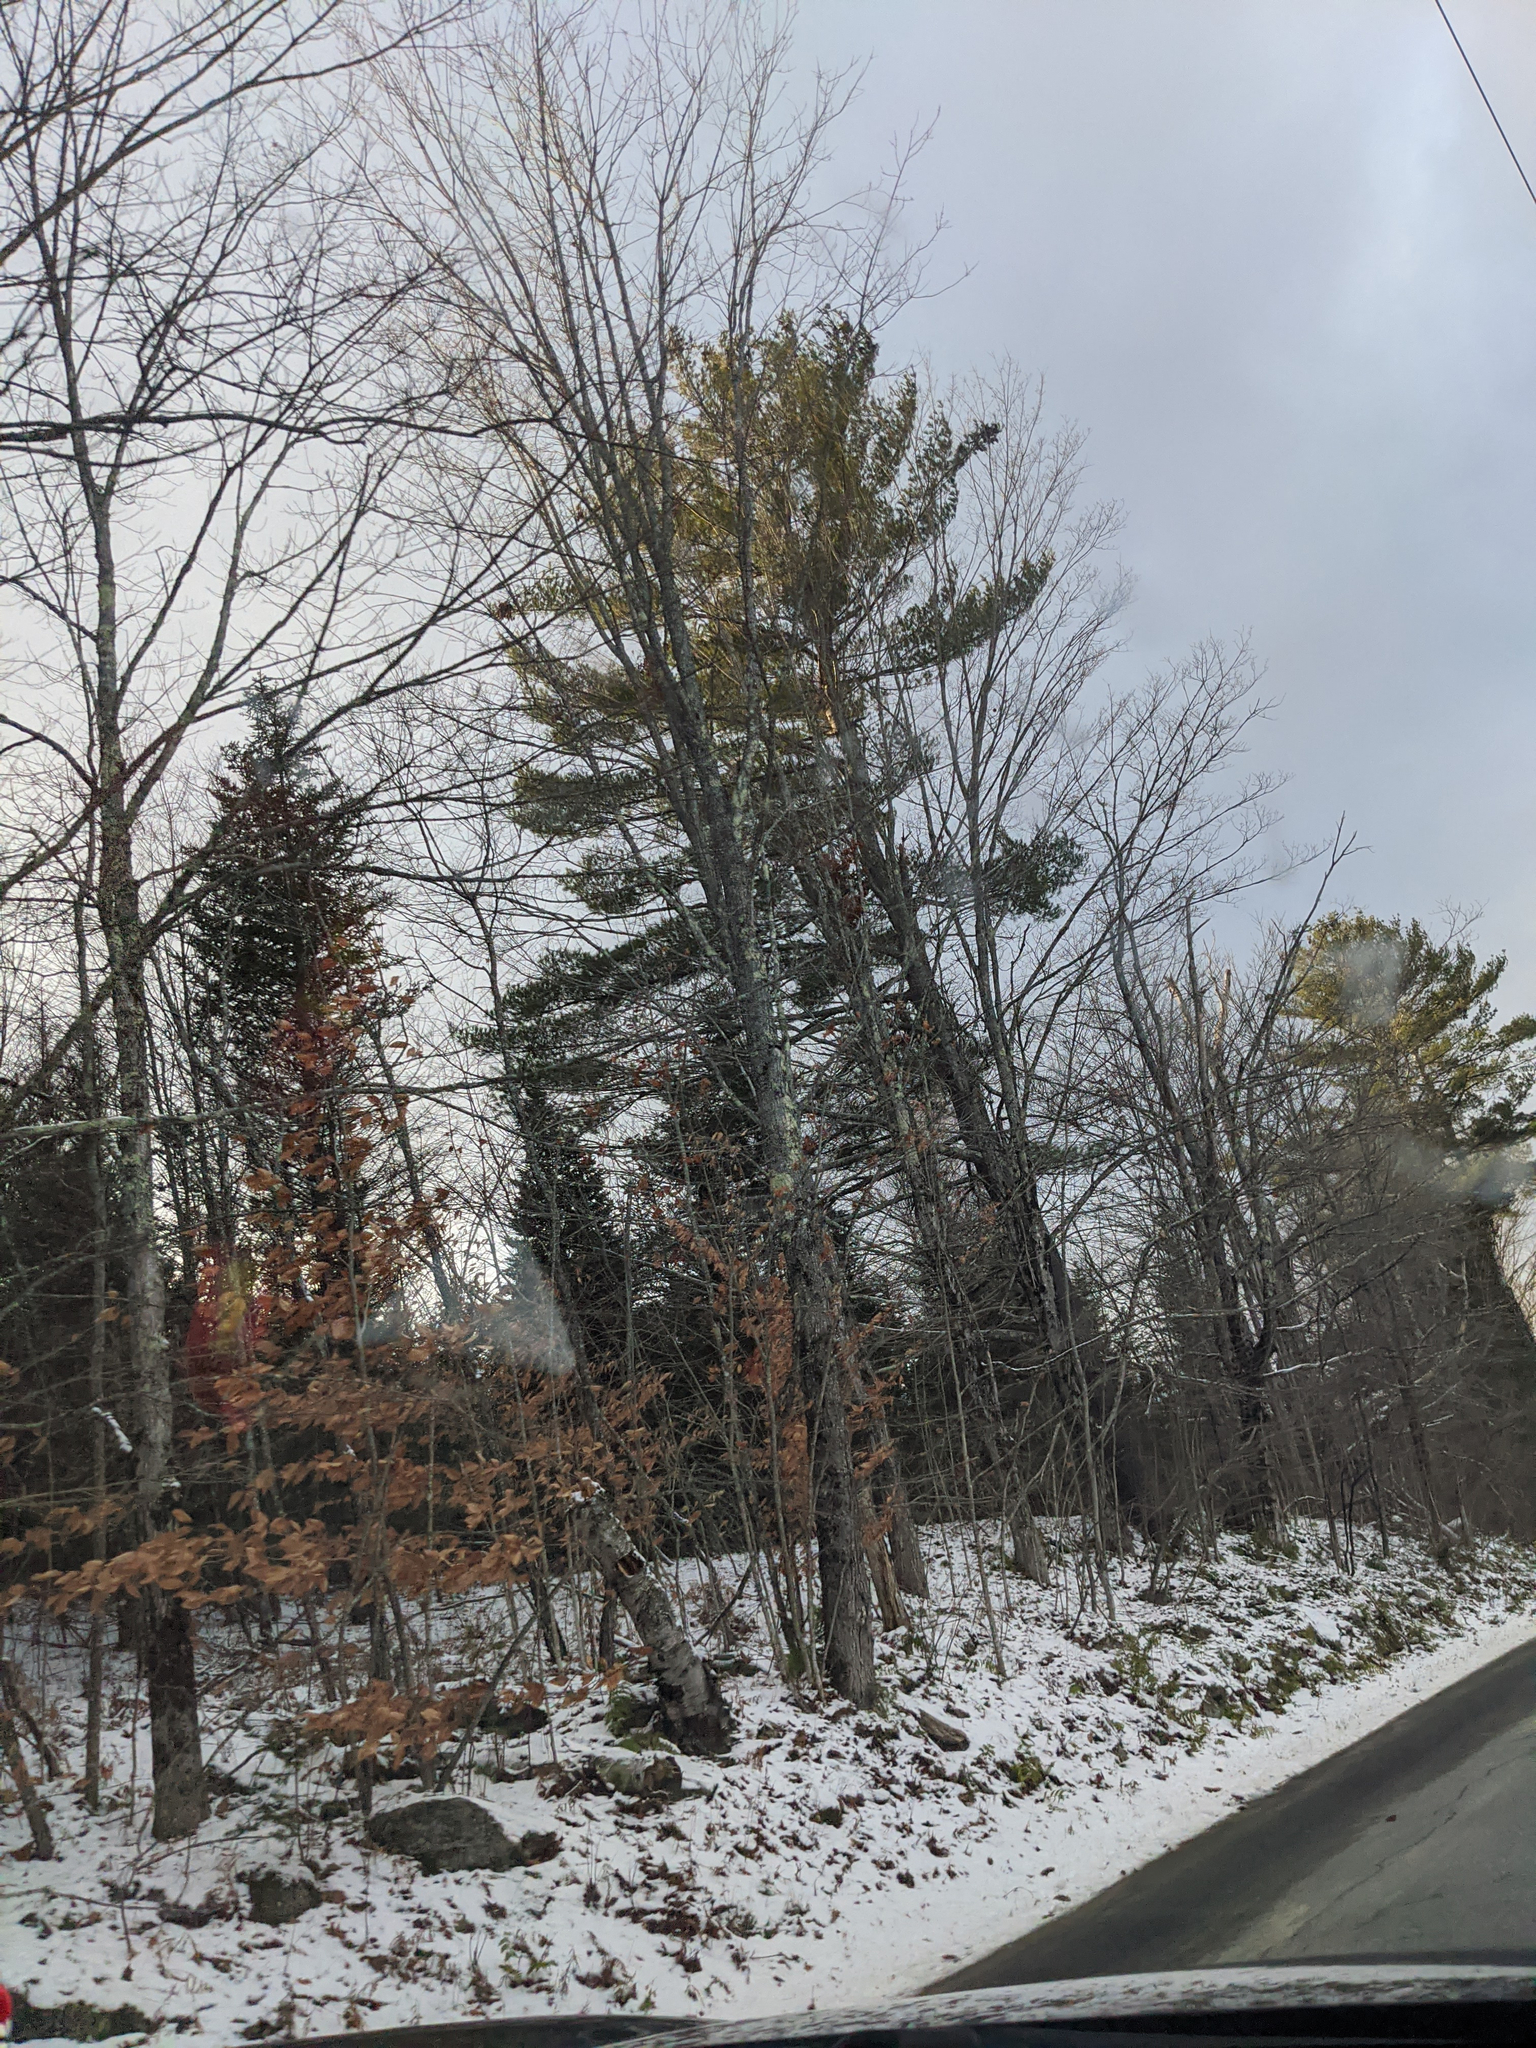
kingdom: Plantae
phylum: Tracheophyta
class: Pinopsida
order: Pinales
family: Pinaceae
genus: Pinus
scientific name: Pinus strobus
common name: Weymouth pine
